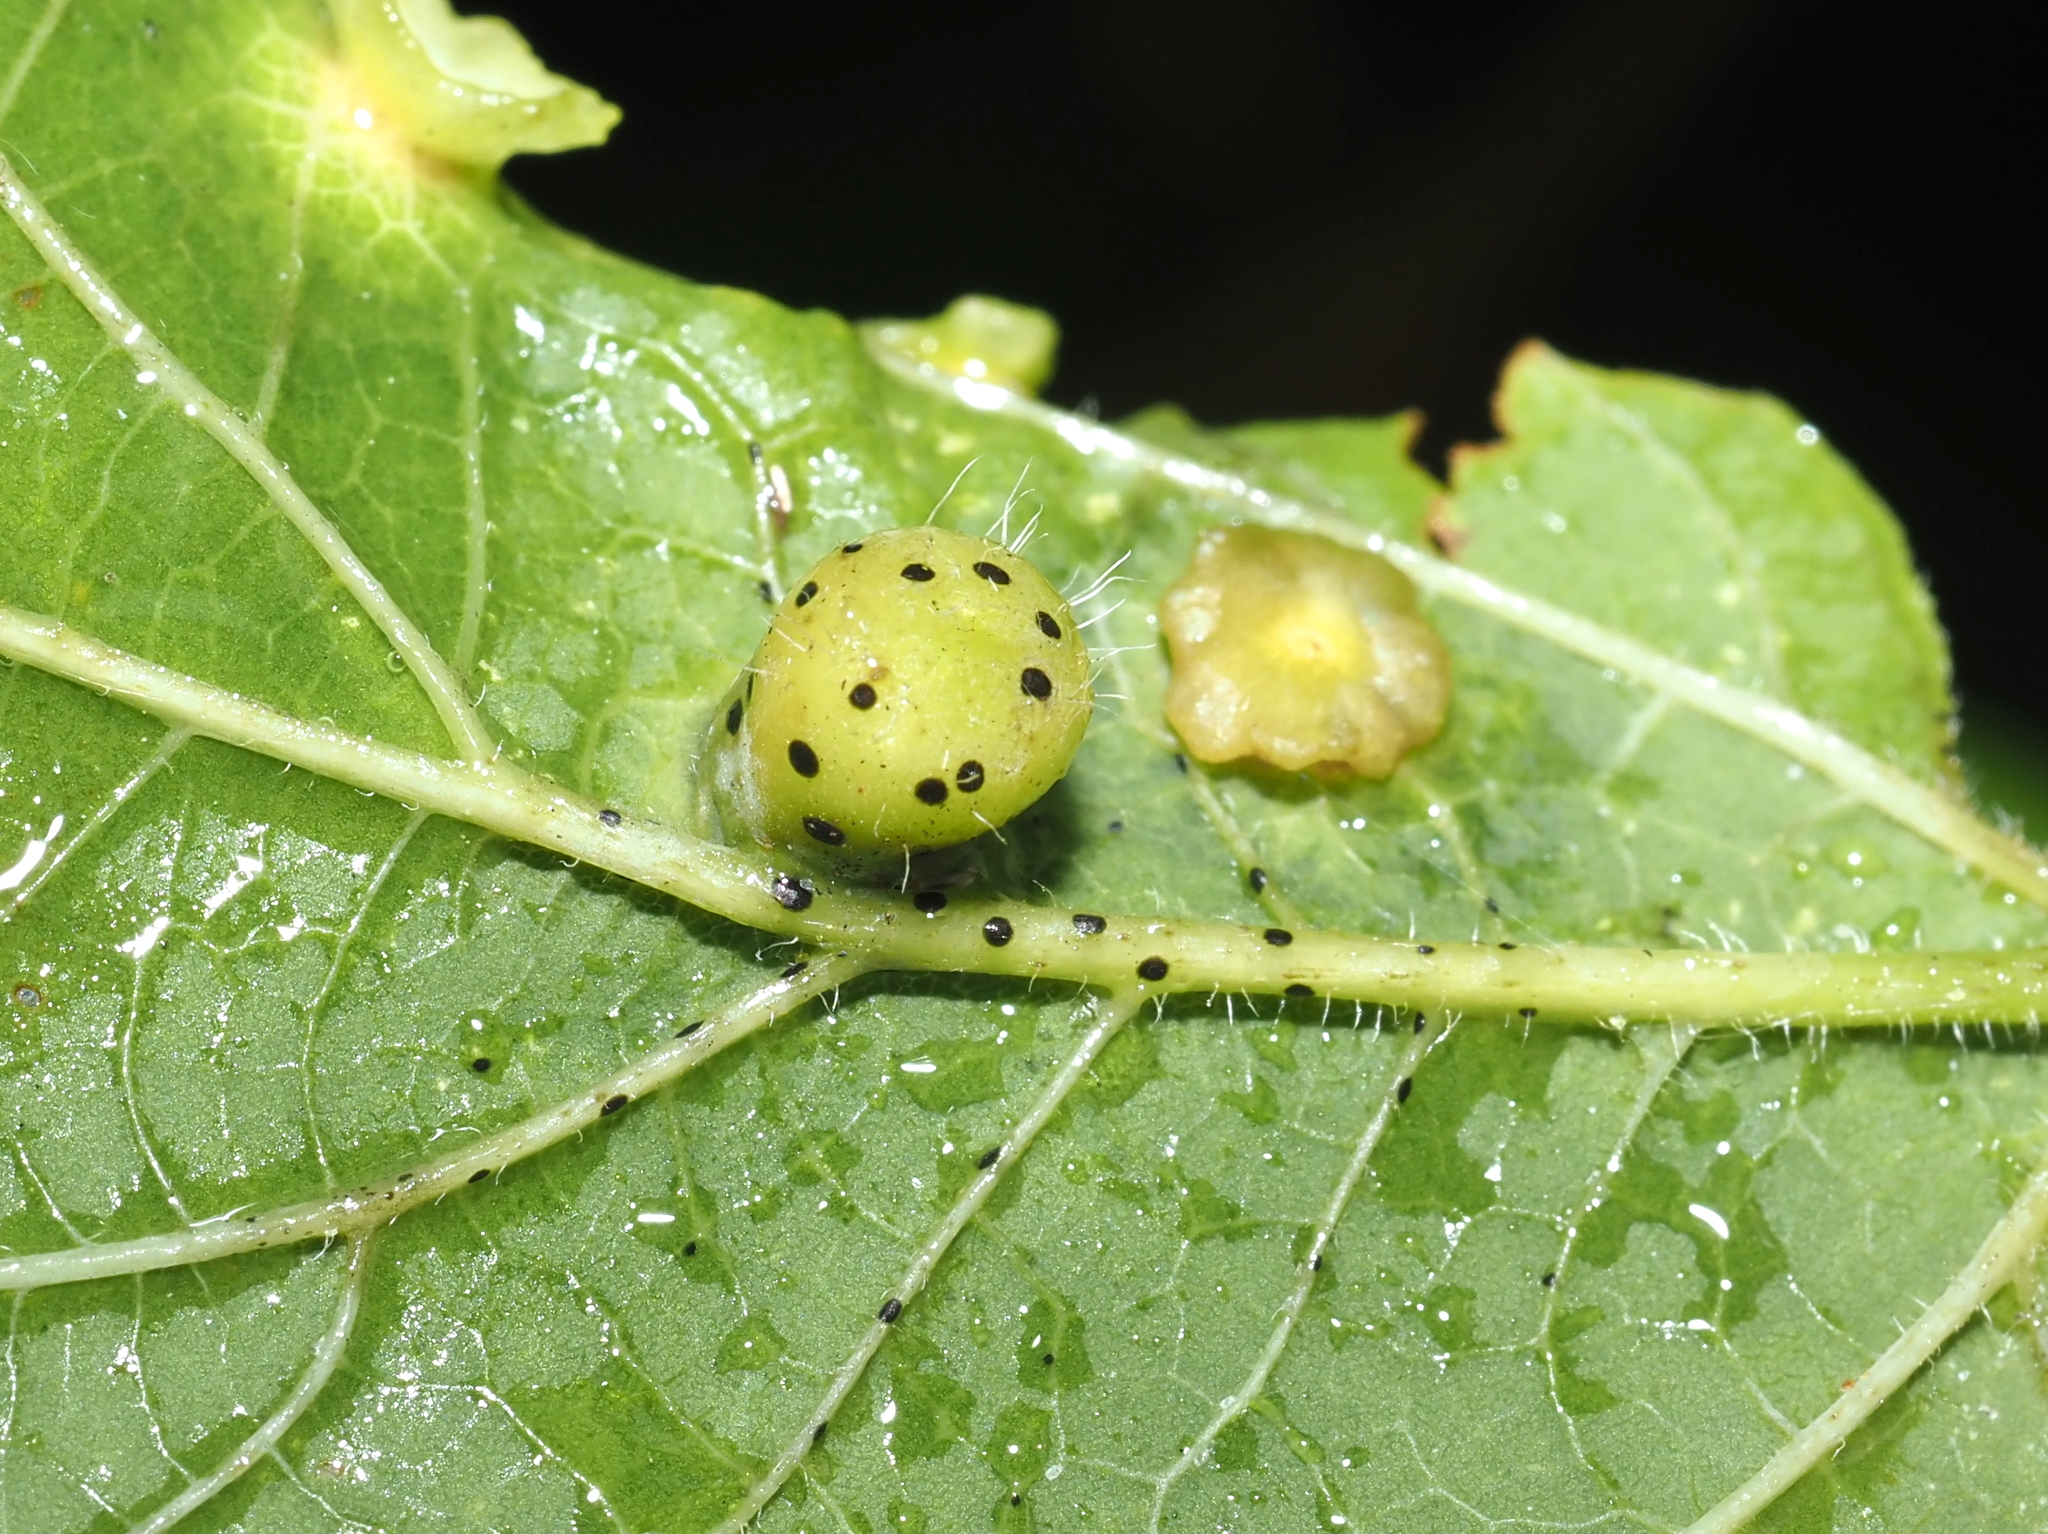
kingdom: Animalia
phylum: Arthropoda
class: Insecta
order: Hemiptera
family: Aphalaridae
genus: Pachypsylla
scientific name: Pachypsylla celtidismamma
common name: Hackberry nipplegall psyllid
